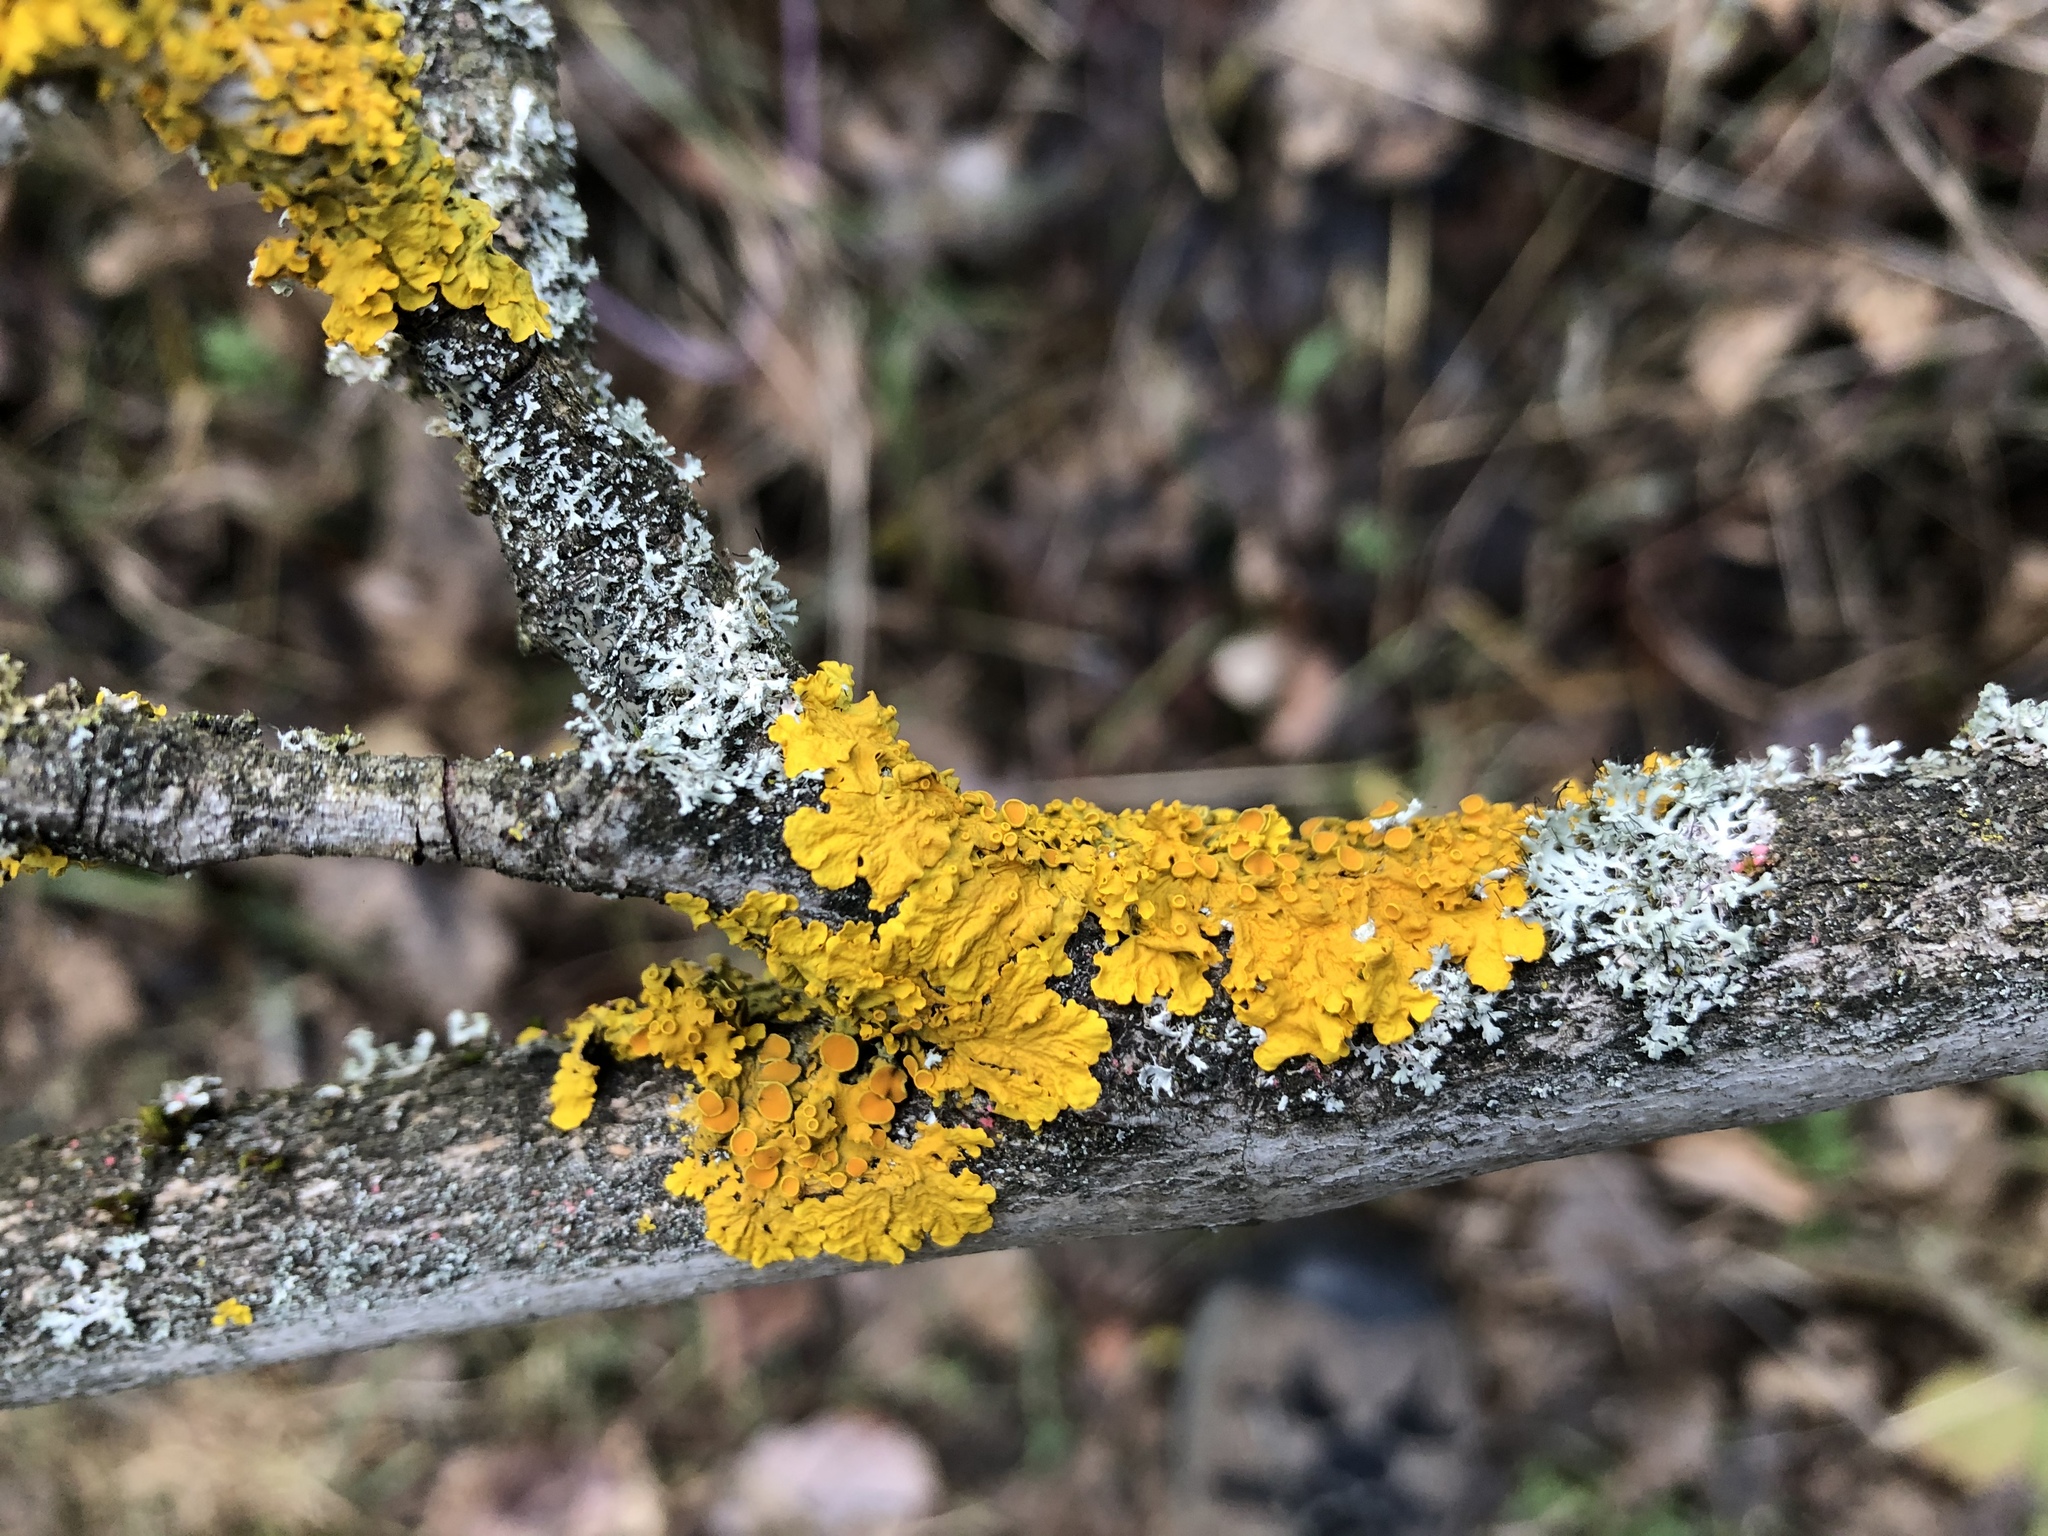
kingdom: Fungi
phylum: Ascomycota
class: Lecanoromycetes
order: Teloschistales
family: Teloschistaceae
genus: Xanthoria
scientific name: Xanthoria parietina
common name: Common orange lichen
